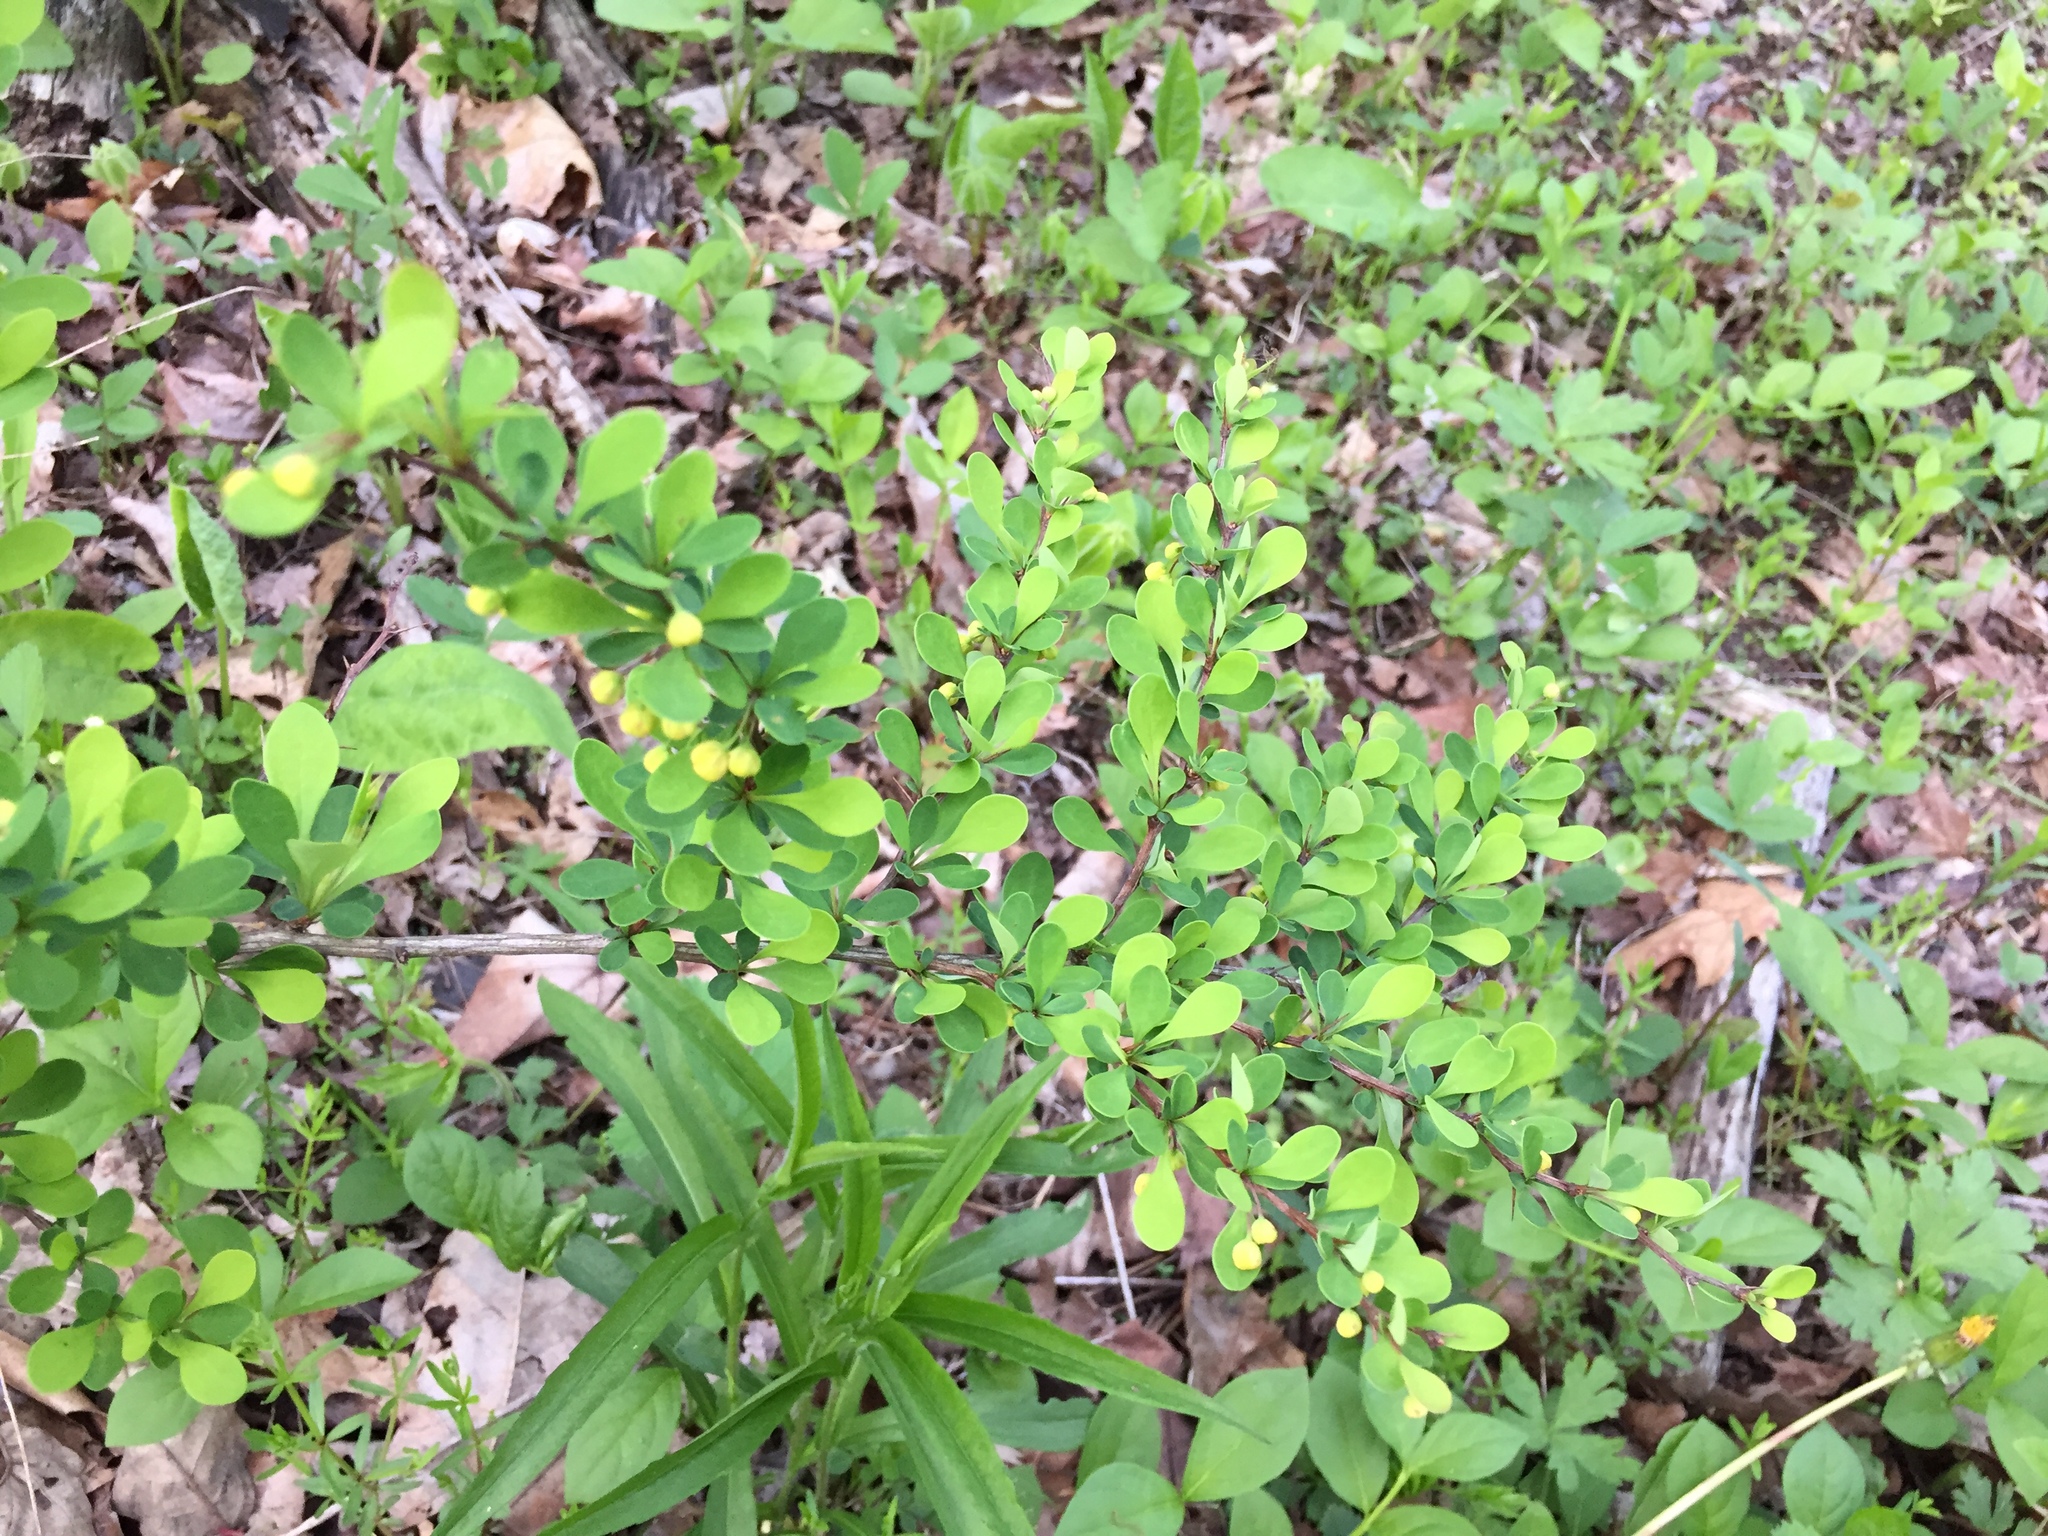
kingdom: Plantae
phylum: Tracheophyta
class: Magnoliopsida
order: Ranunculales
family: Berberidaceae
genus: Berberis
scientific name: Berberis thunbergii
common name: Japanese barberry
